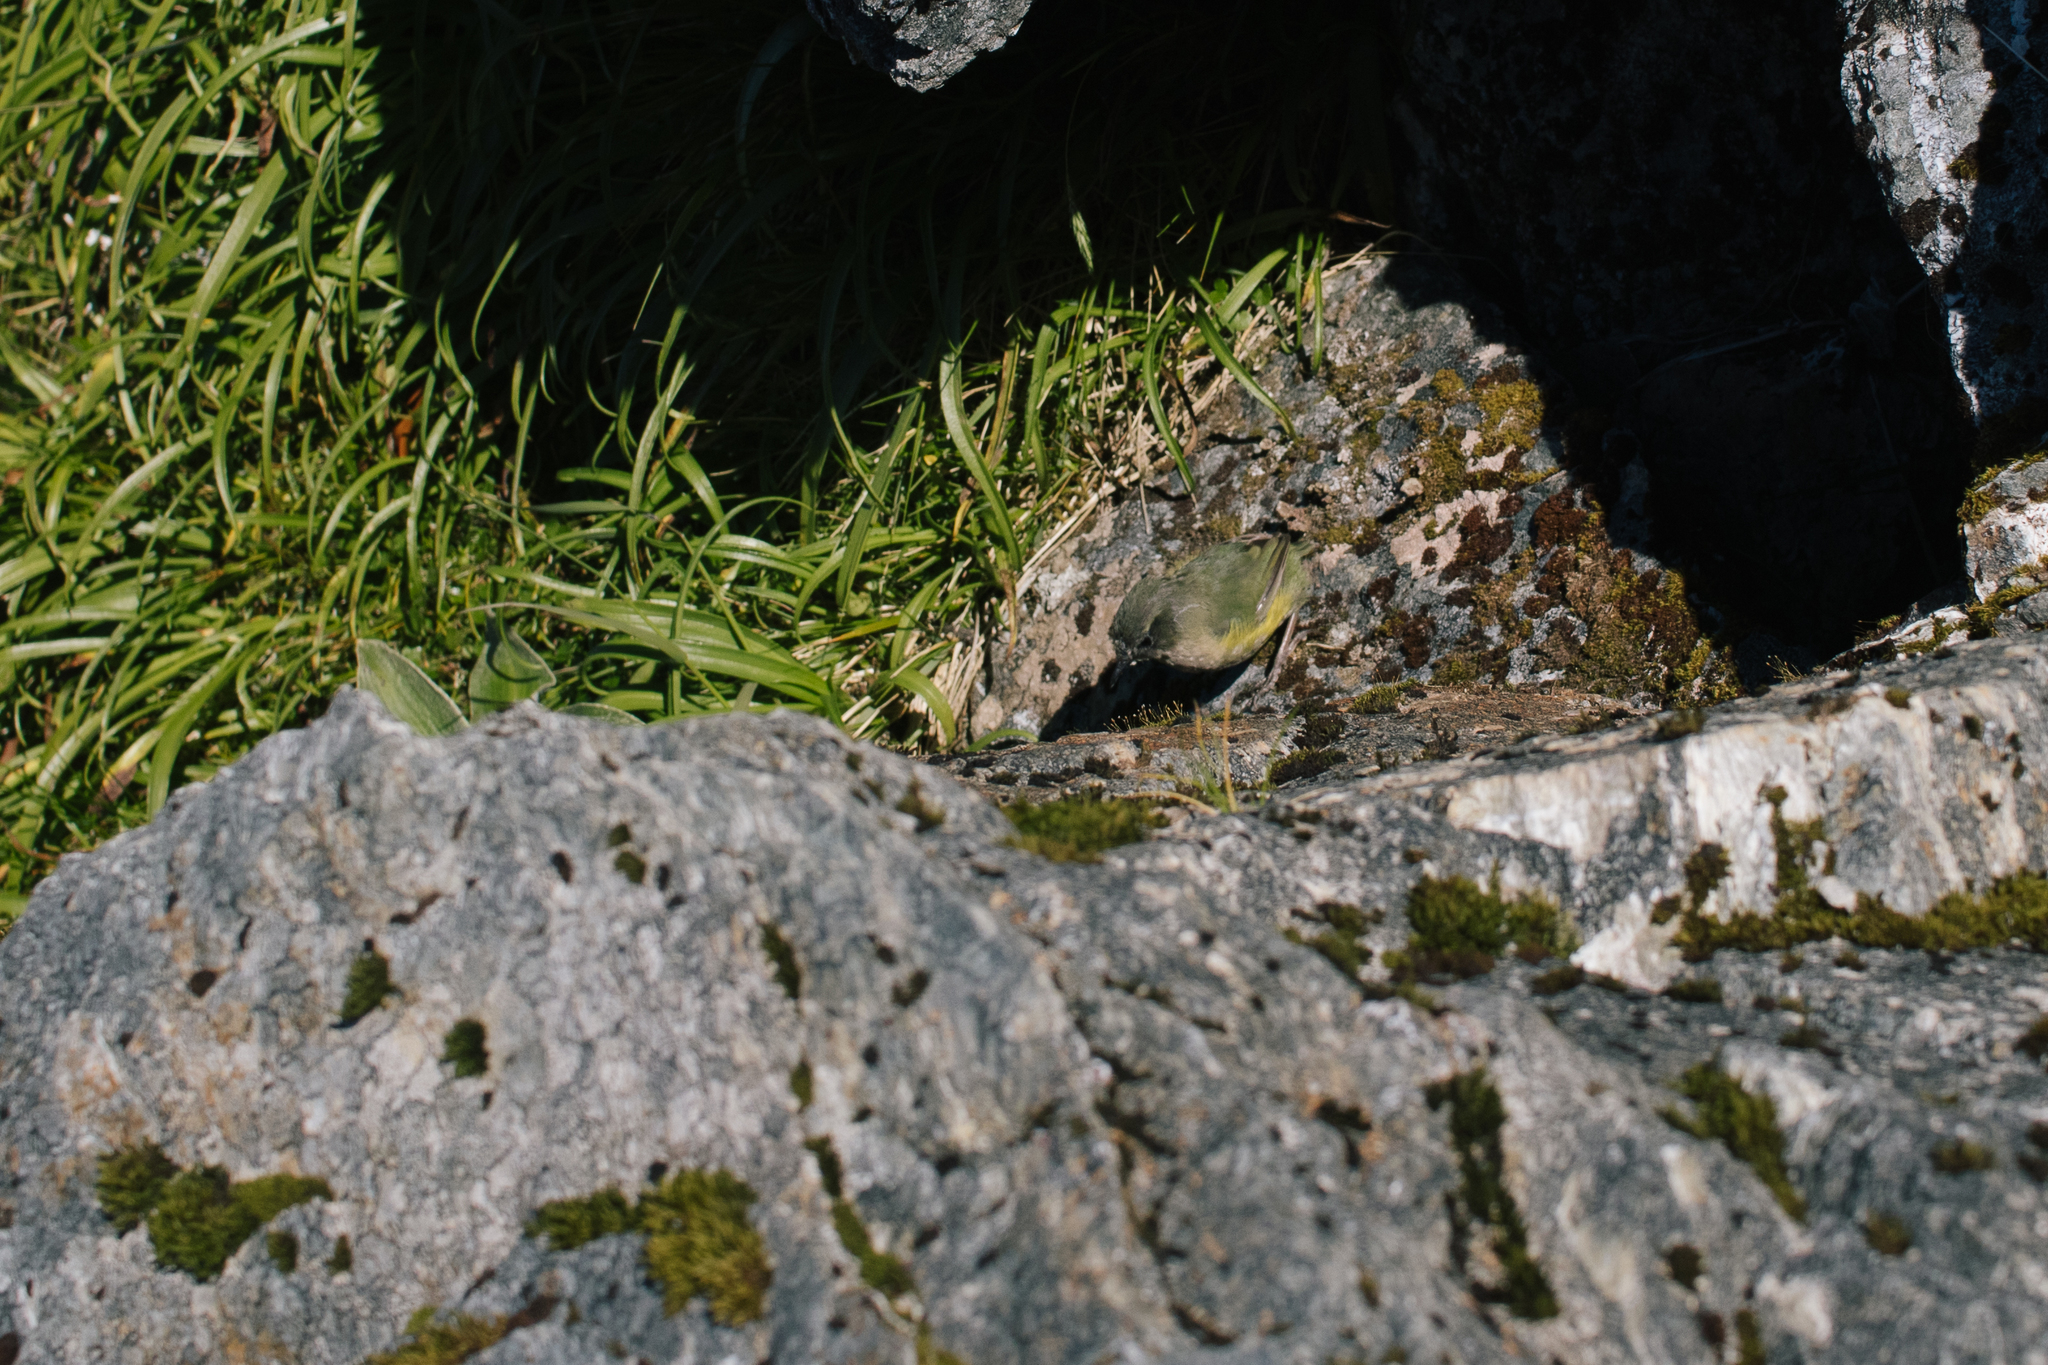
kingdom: Animalia
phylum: Chordata
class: Aves
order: Passeriformes
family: Acanthisittidae
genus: Xenicus
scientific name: Xenicus gilviventris
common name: New zealand rockwren
